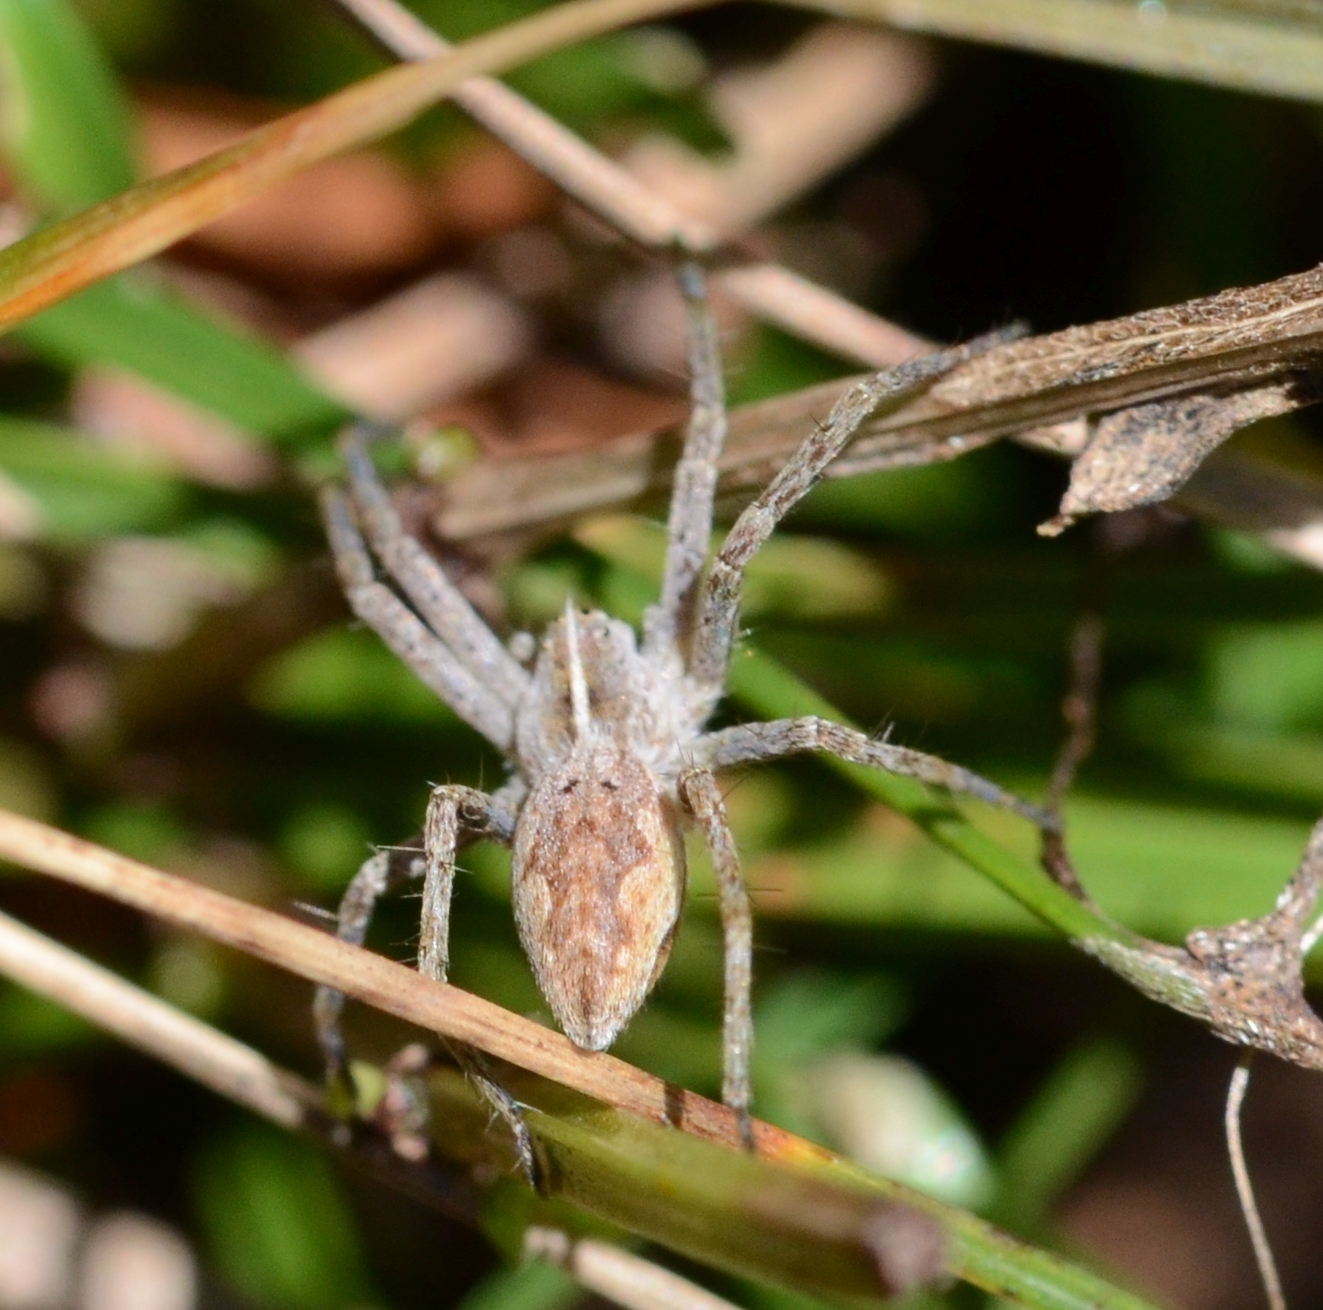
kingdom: Animalia
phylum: Arthropoda
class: Arachnida
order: Araneae
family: Pisauridae
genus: Pisaura
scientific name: Pisaura mirabilis
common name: Tent spider
